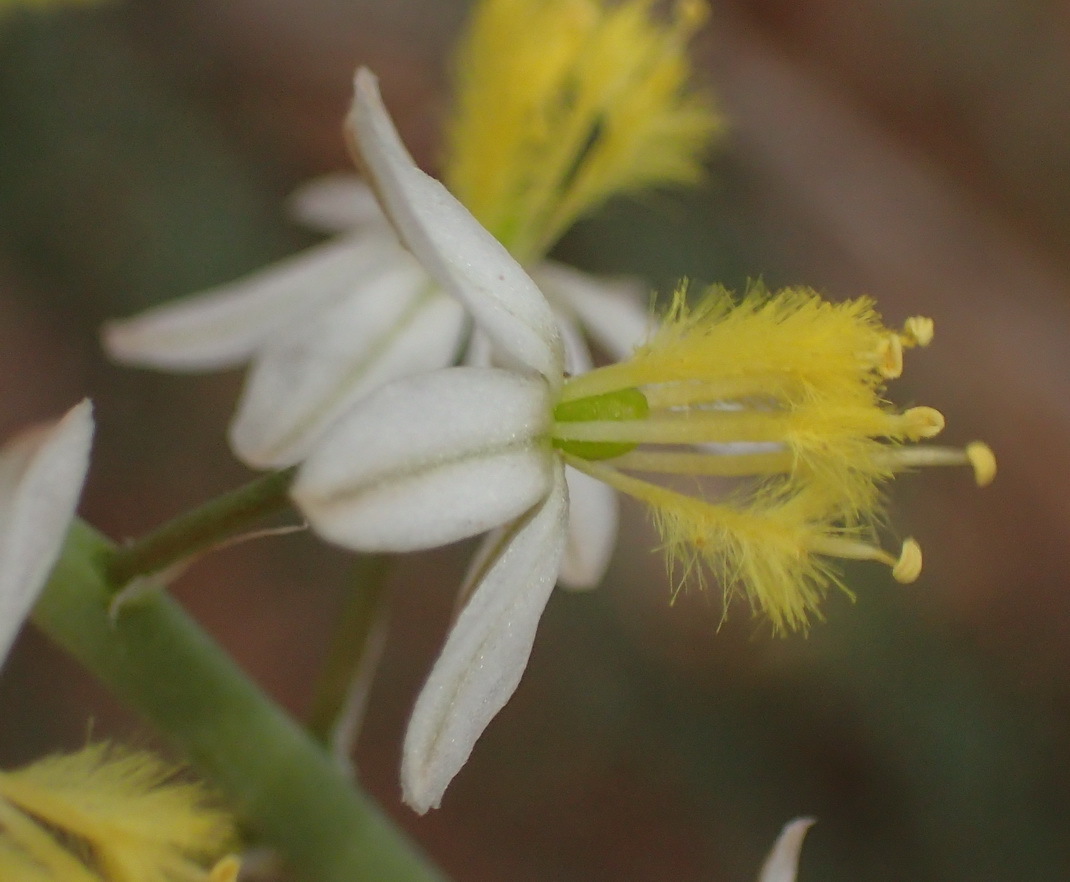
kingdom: Plantae
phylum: Tracheophyta
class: Liliopsida
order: Asparagales
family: Asphodelaceae
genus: Bulbine
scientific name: Bulbine frutescens
